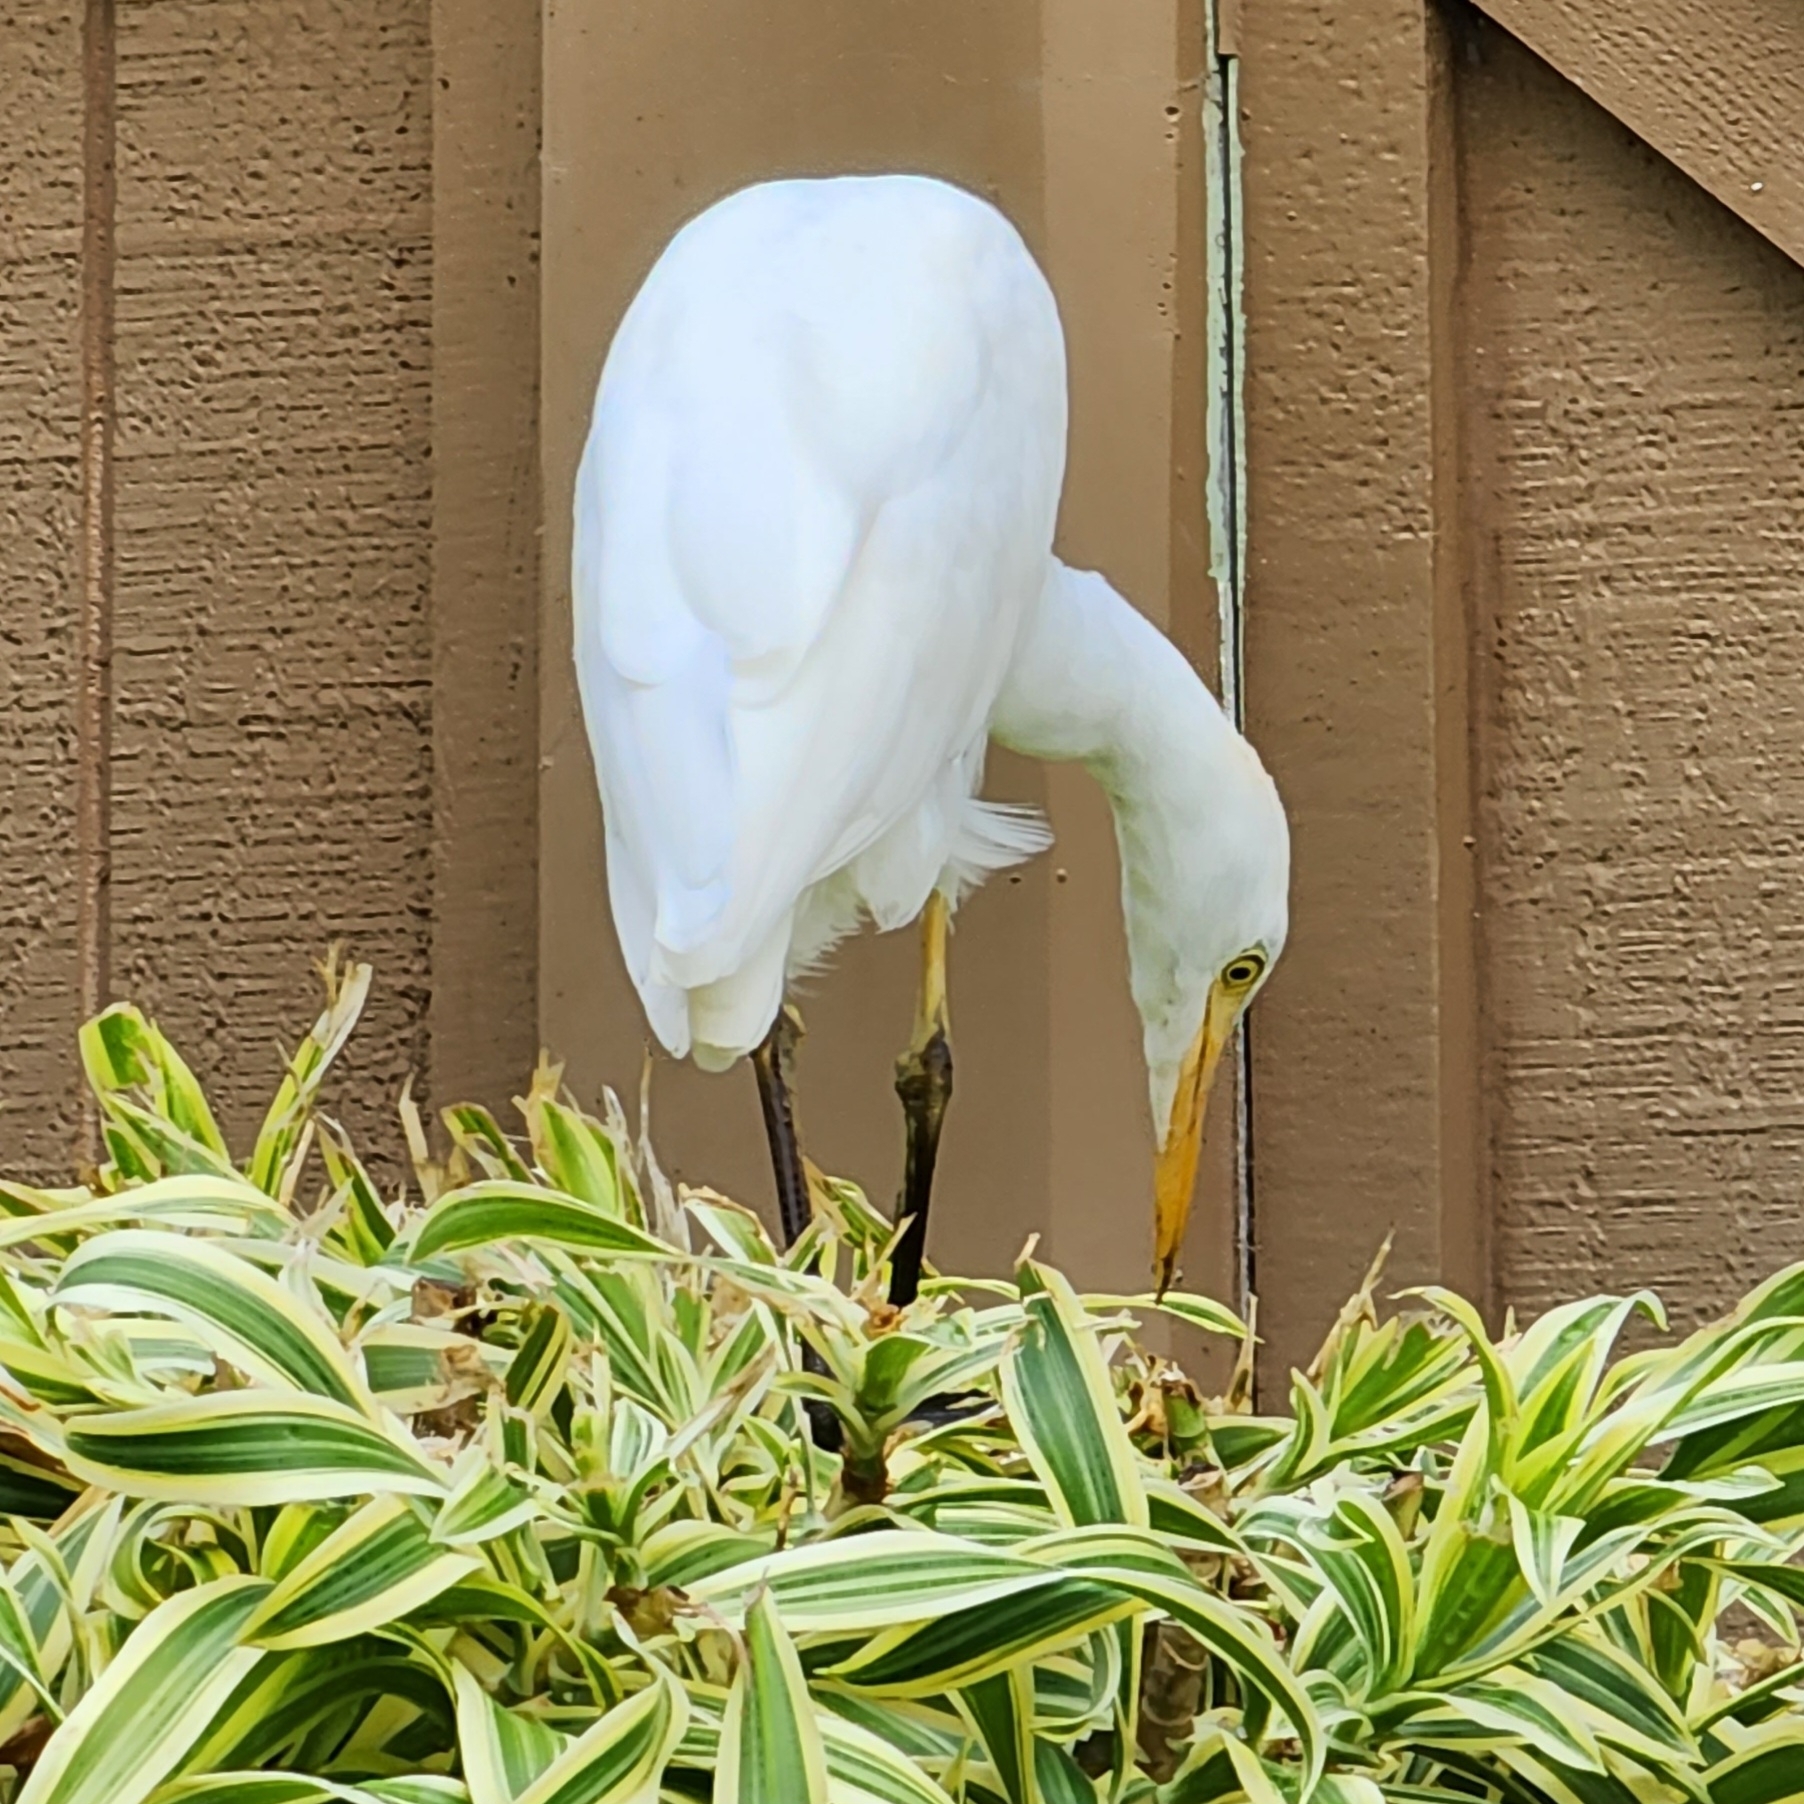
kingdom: Animalia
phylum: Chordata
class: Aves
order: Pelecaniformes
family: Ardeidae
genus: Bubulcus
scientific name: Bubulcus ibis
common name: Cattle egret
